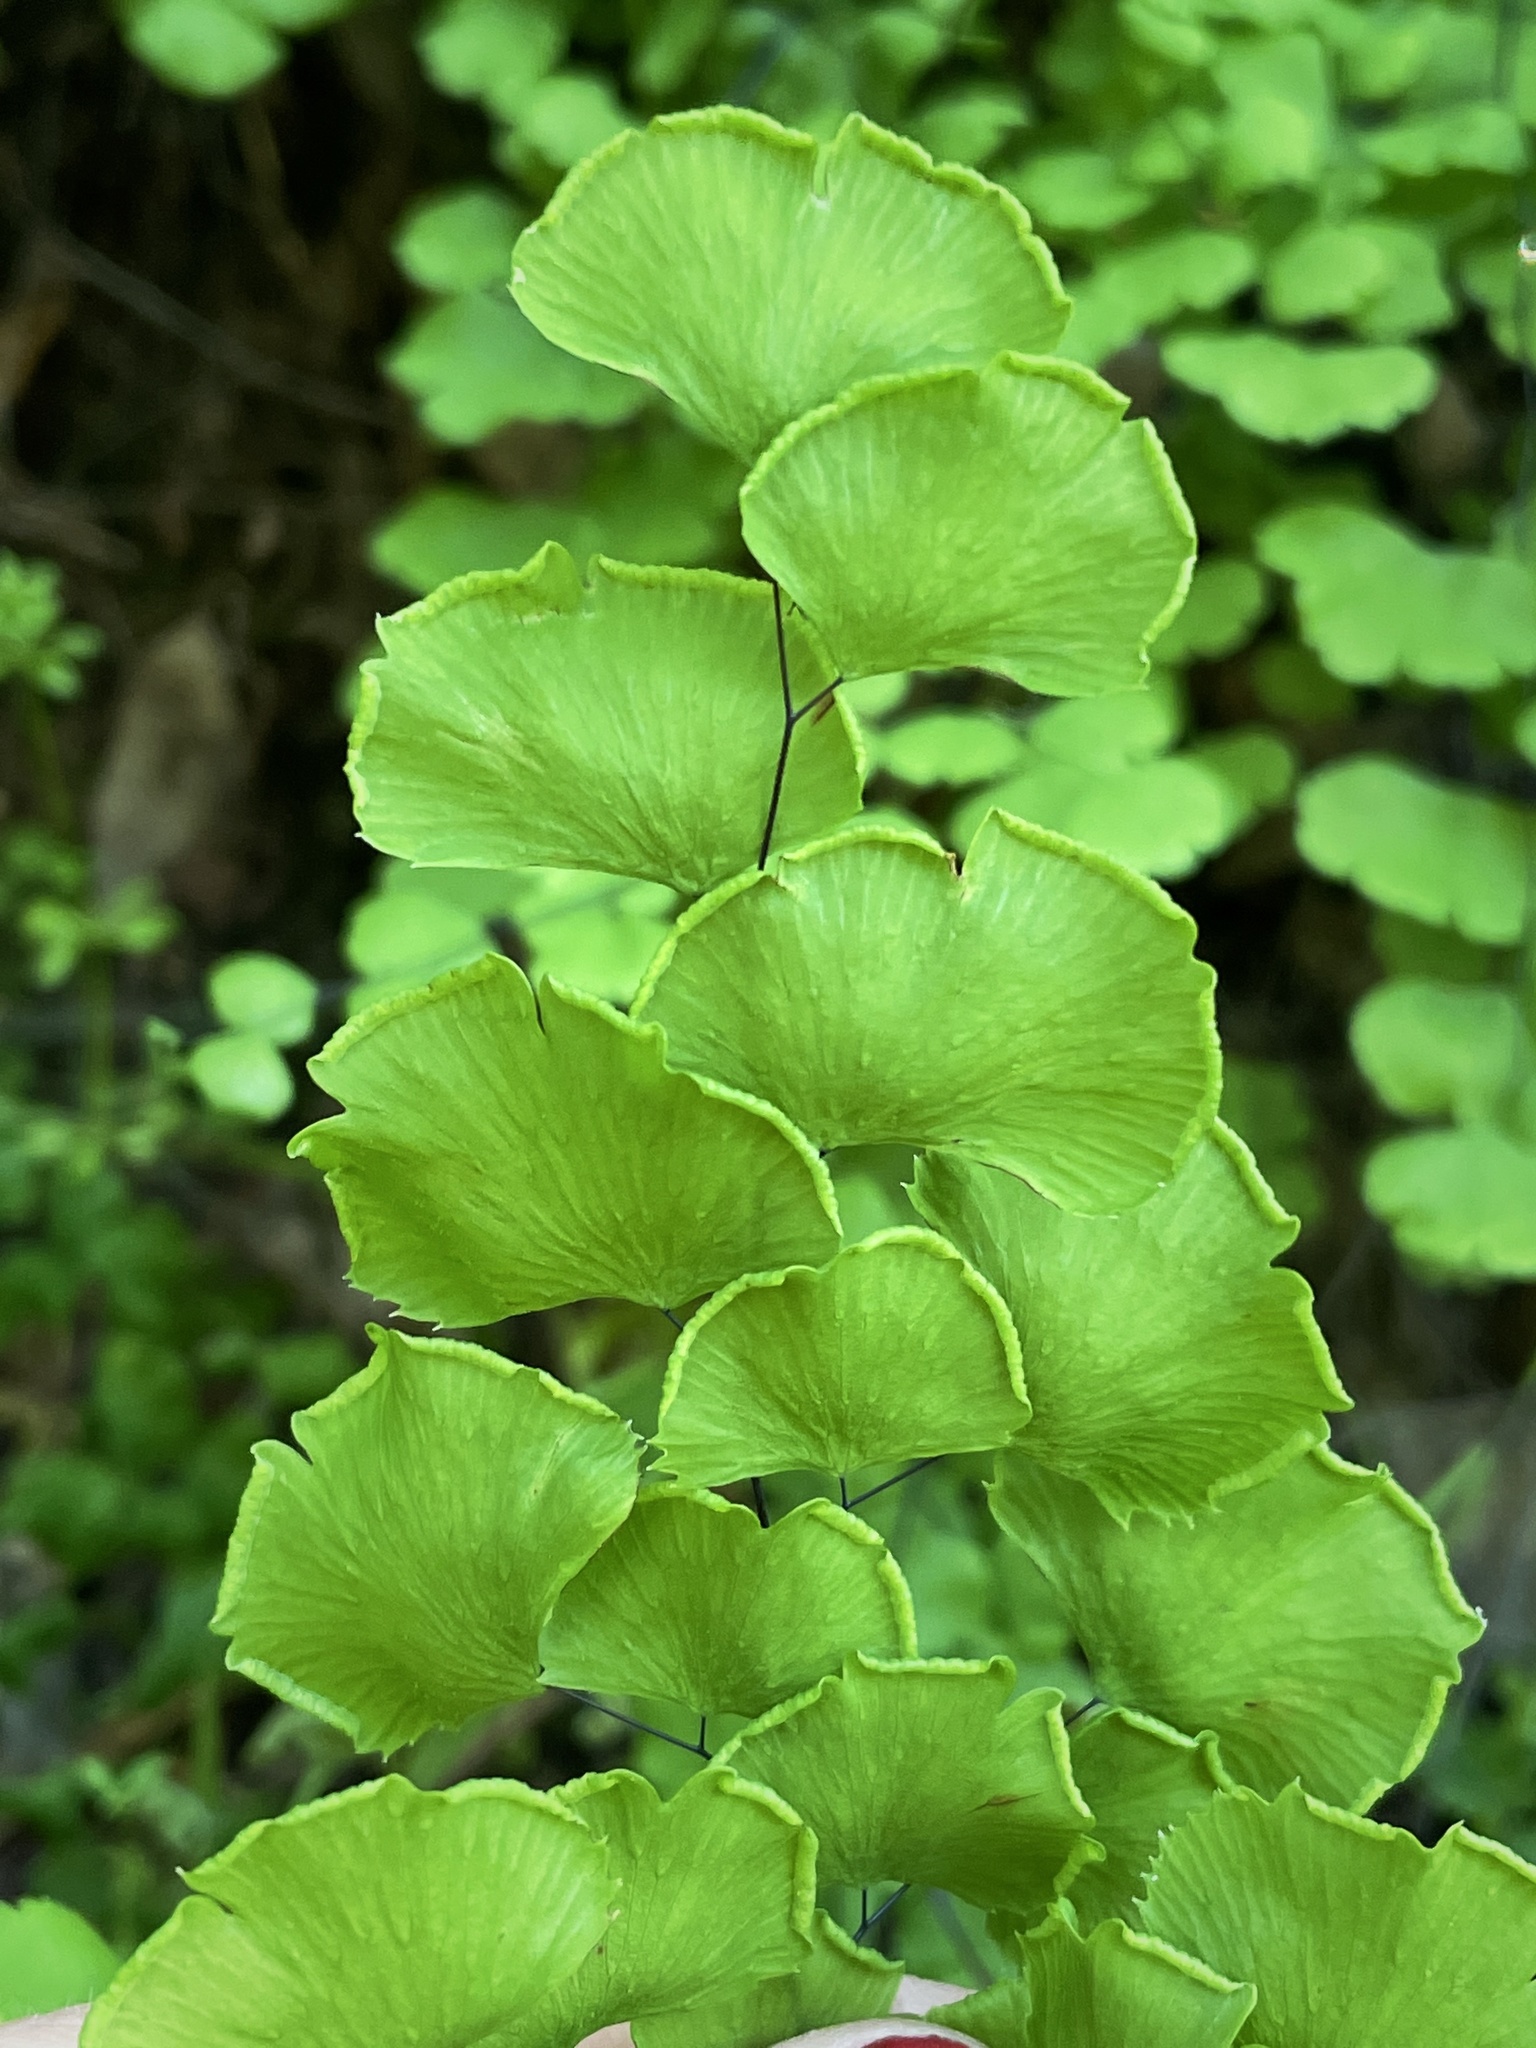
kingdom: Plantae
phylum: Tracheophyta
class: Polypodiopsida
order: Polypodiales
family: Pteridaceae
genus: Adiantum
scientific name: Adiantum jordanii
